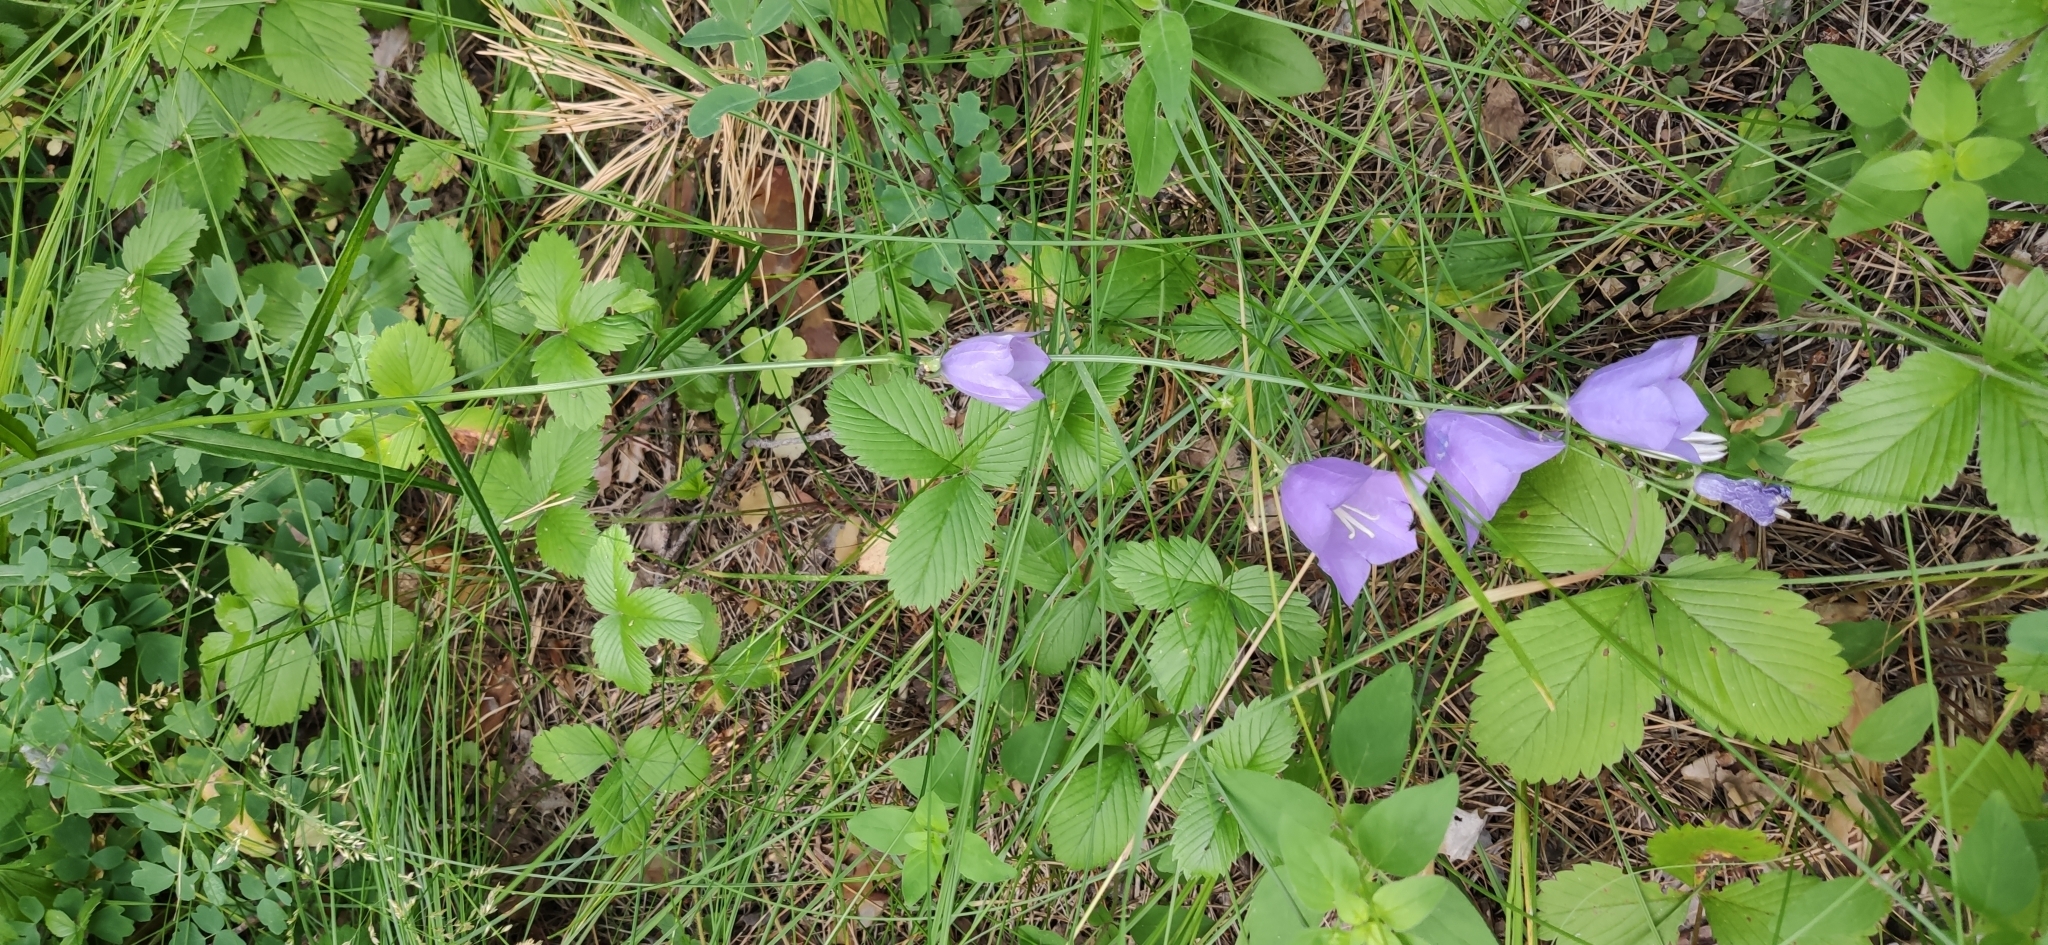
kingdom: Plantae
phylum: Tracheophyta
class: Magnoliopsida
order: Asterales
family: Campanulaceae
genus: Campanula
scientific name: Campanula persicifolia
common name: Peach-leaved bellflower
